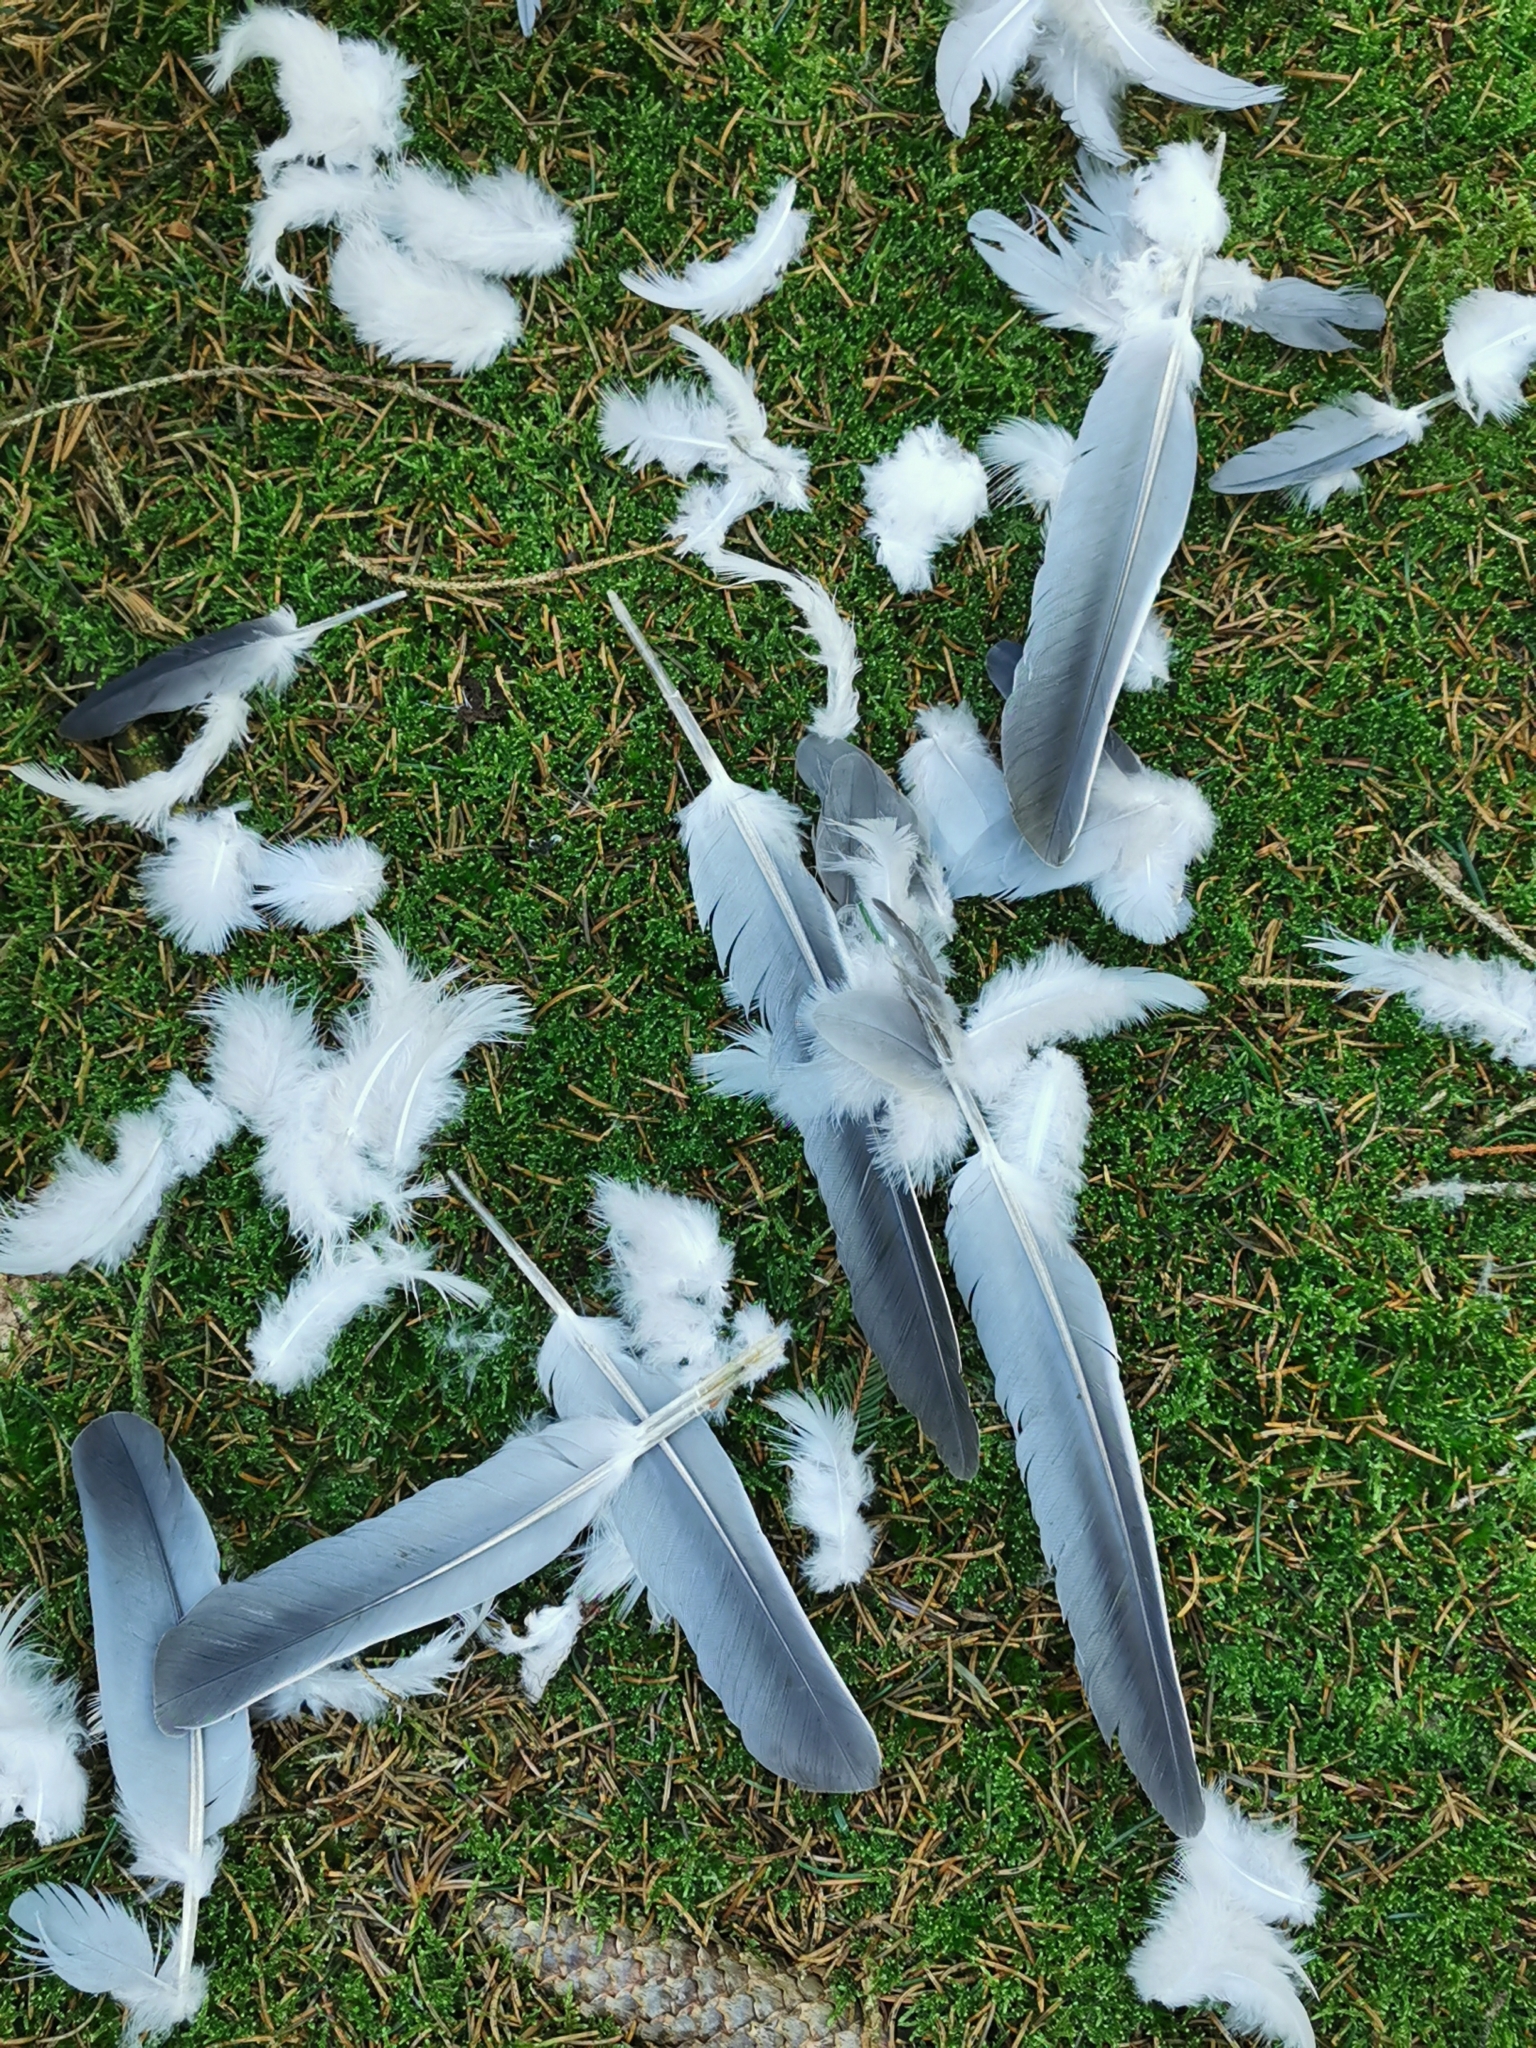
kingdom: Animalia
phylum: Chordata
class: Aves
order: Columbiformes
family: Columbidae
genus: Columba
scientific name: Columba palumbus
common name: Common wood pigeon
